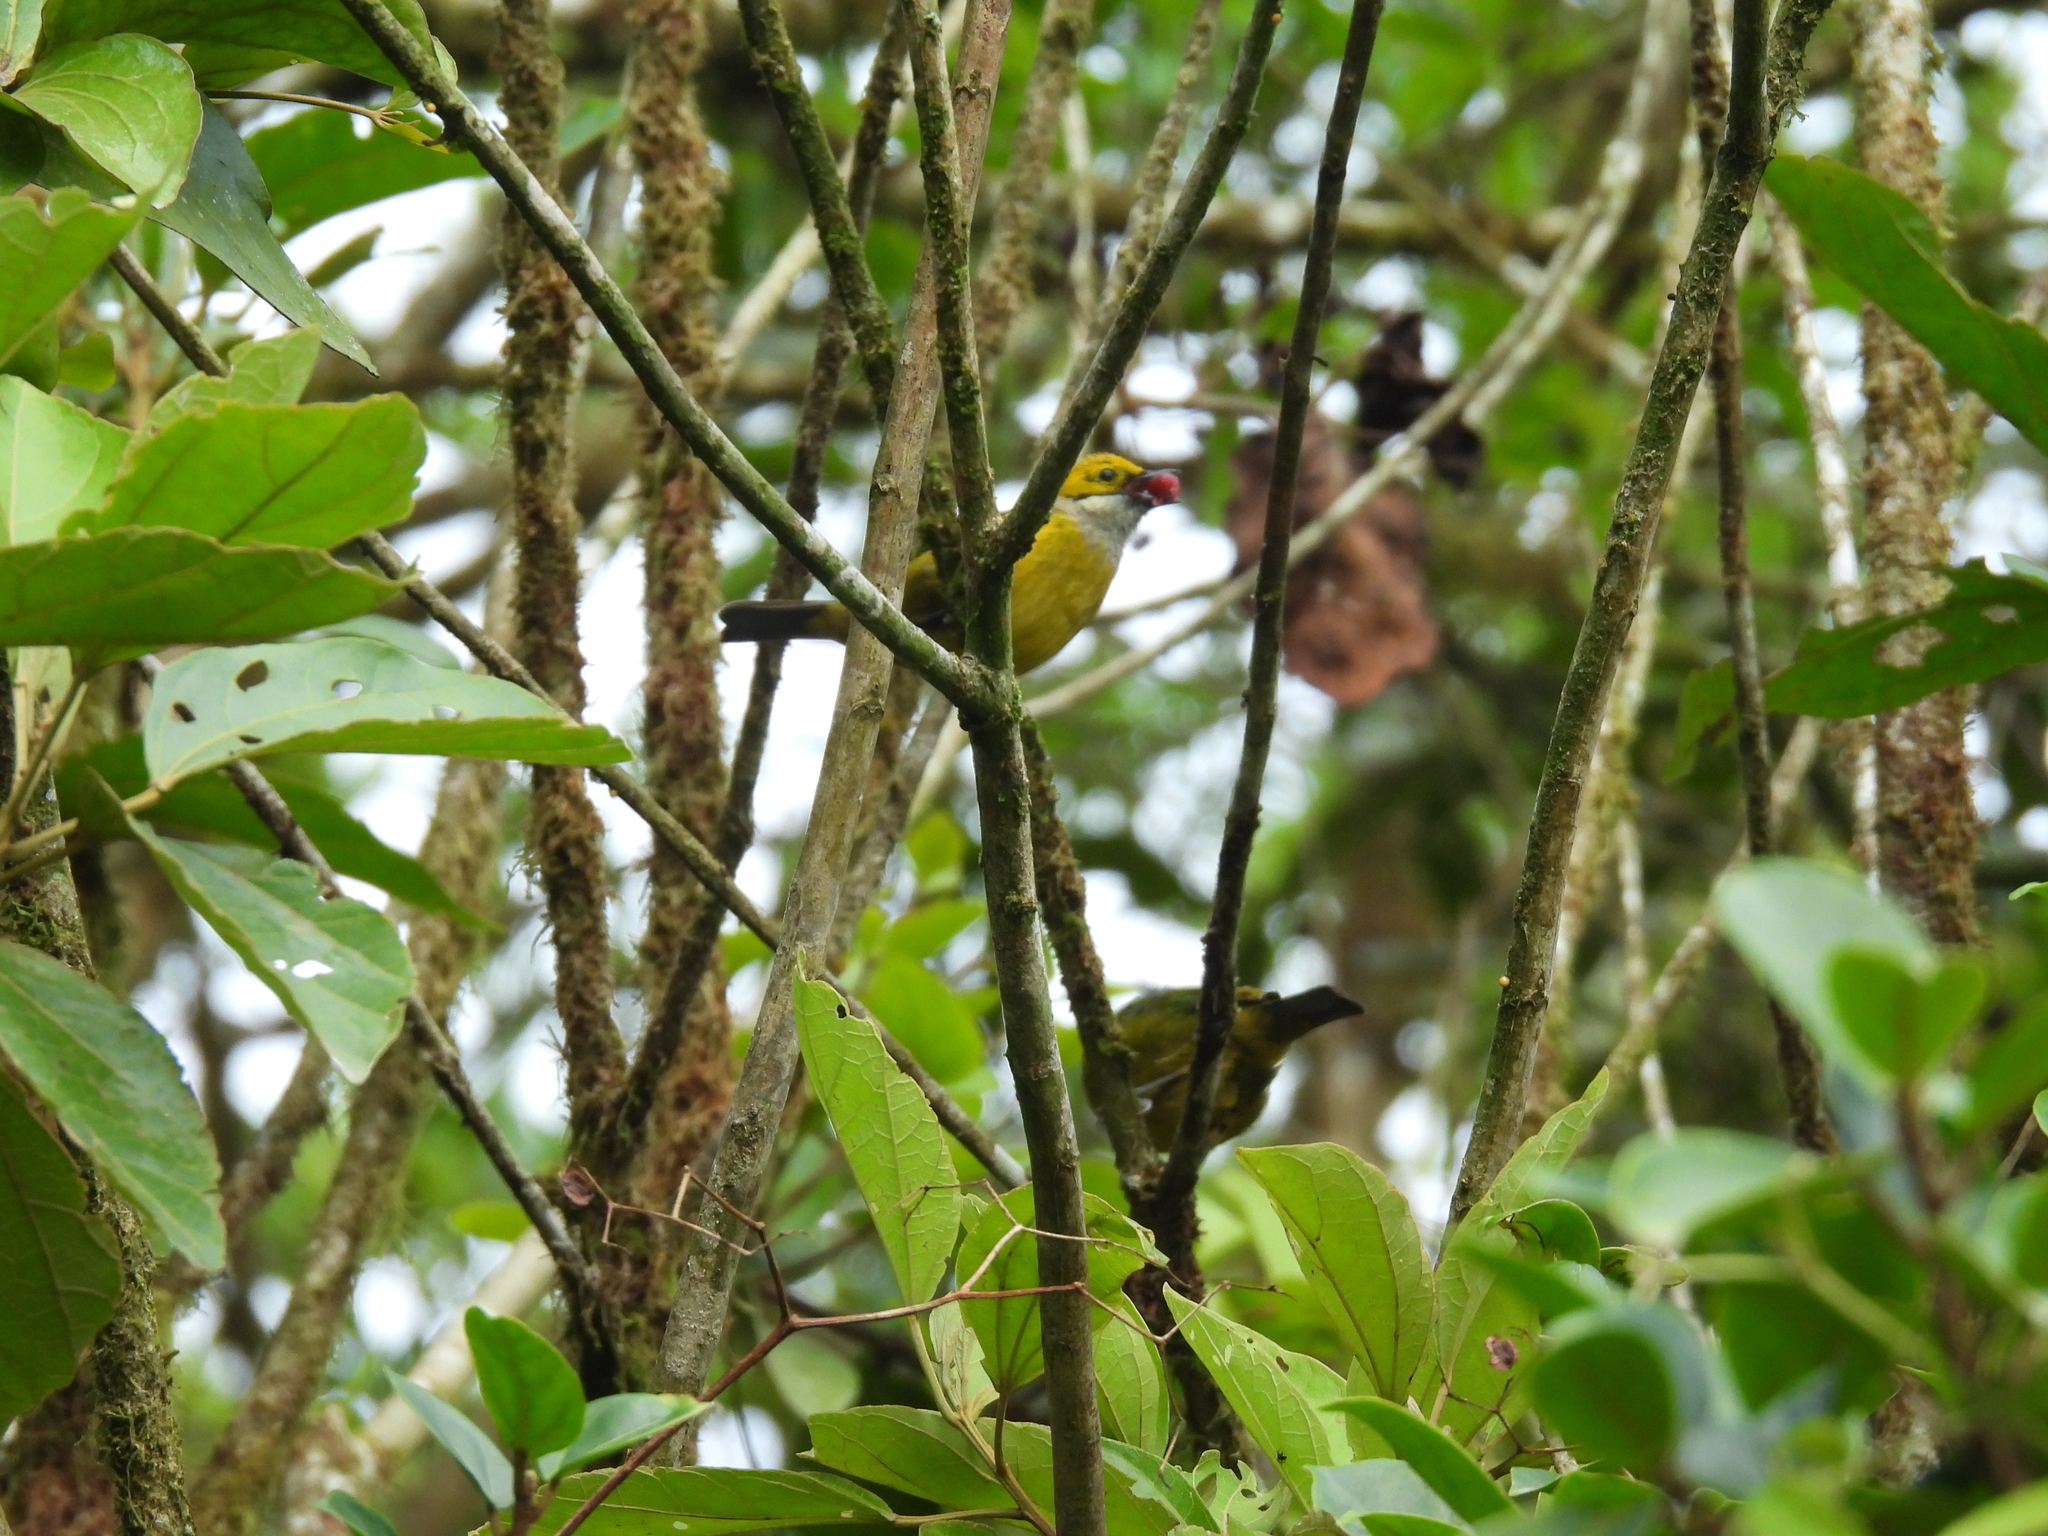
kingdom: Animalia
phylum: Chordata
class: Aves
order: Passeriformes
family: Thraupidae
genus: Tangara
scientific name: Tangara icterocephala
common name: Silver-throated tanager
